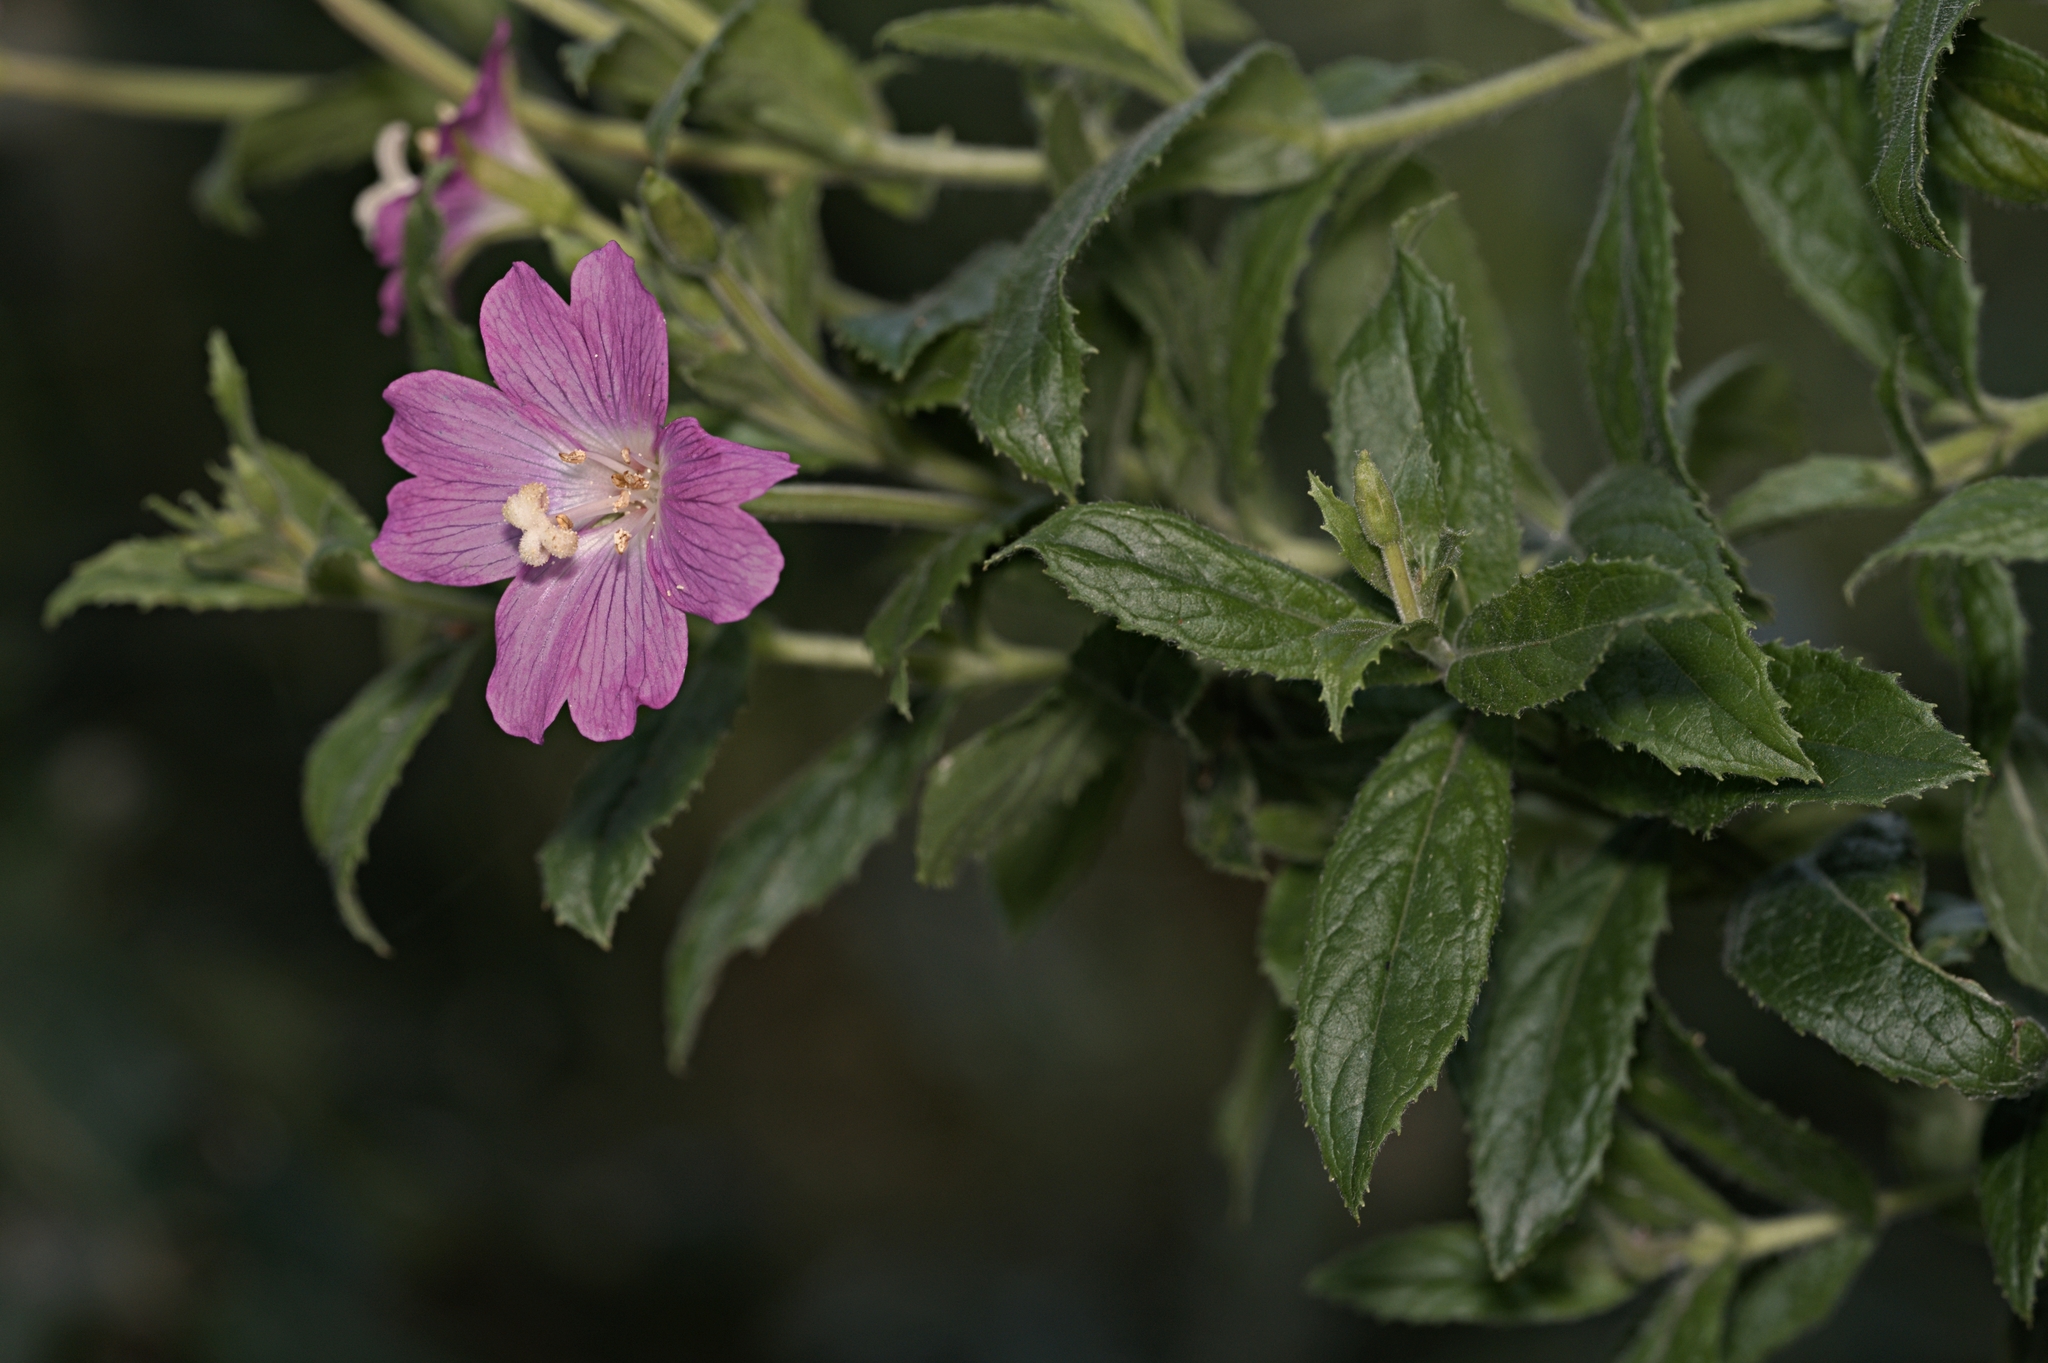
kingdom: Plantae
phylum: Tracheophyta
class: Magnoliopsida
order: Myrtales
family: Onagraceae
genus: Epilobium
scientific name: Epilobium hirsutum
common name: Great willowherb
